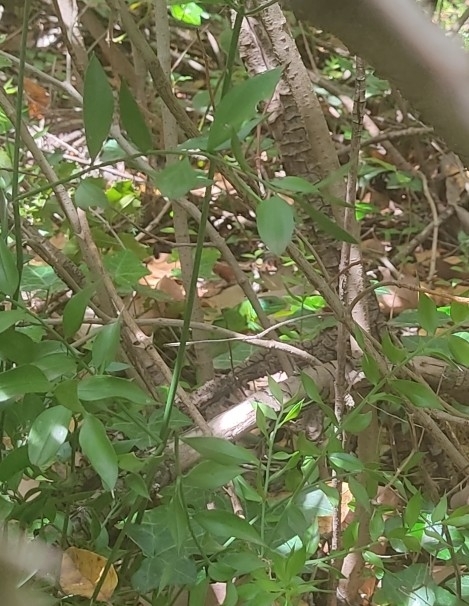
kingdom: Animalia
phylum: Chordata
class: Squamata
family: Lacertidae
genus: Lacerta
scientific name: Lacerta bilineata
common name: Western green lizard
